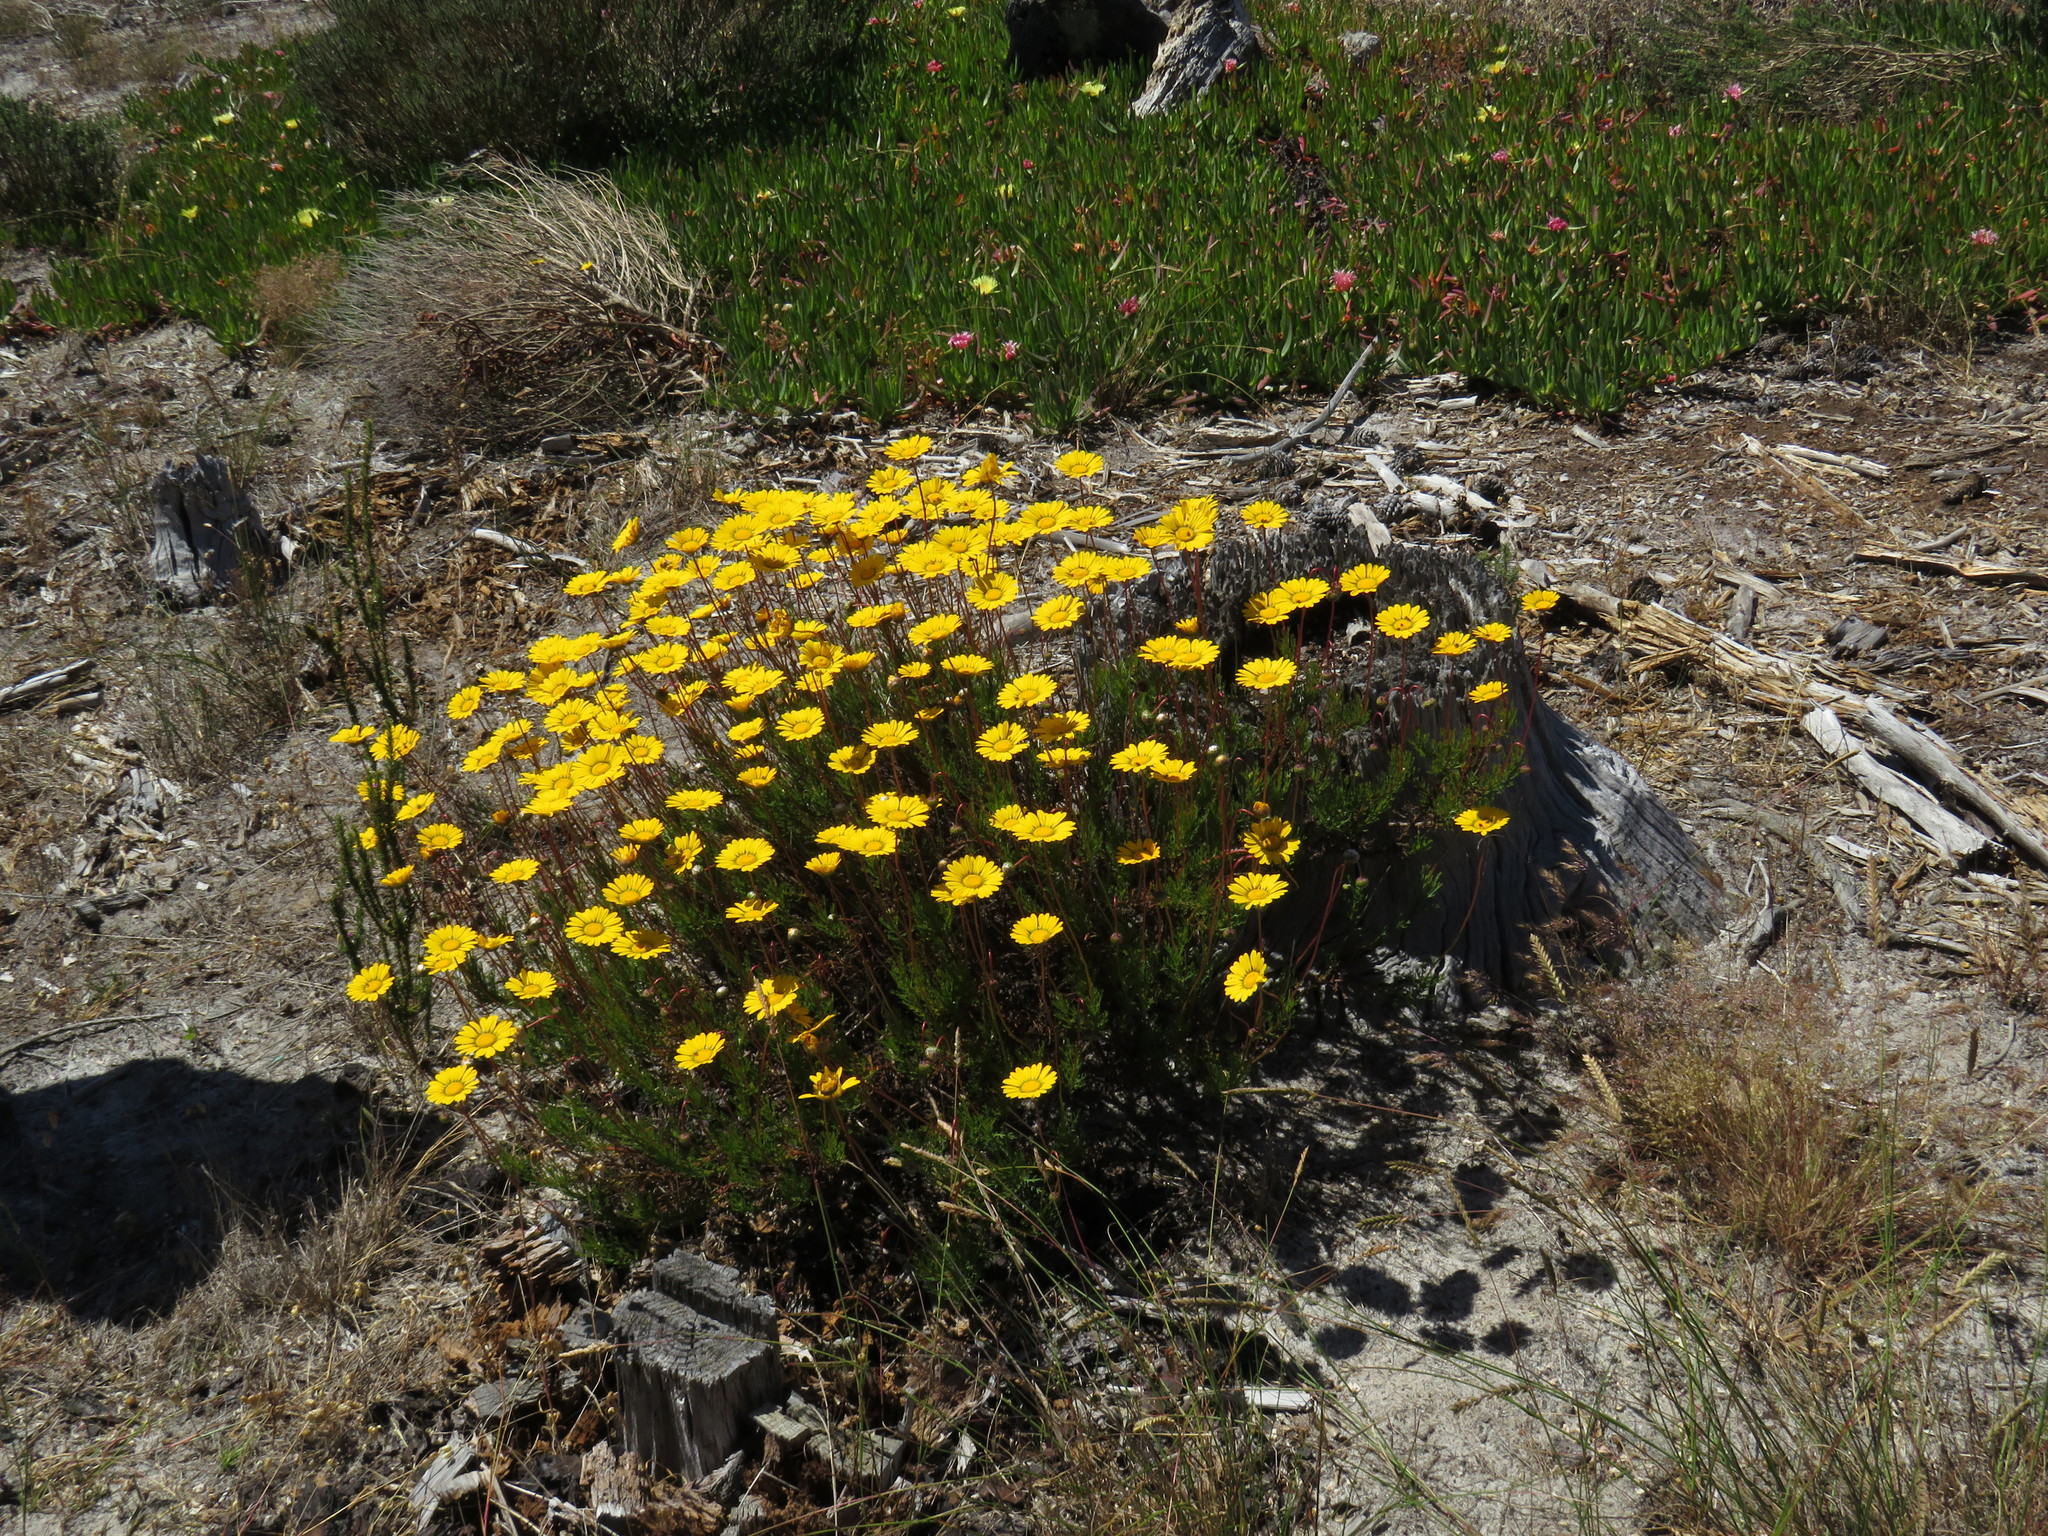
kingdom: Plantae
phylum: Tracheophyta
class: Magnoliopsida
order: Asterales
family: Asteraceae
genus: Ursinia
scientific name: Ursinia paleacea
